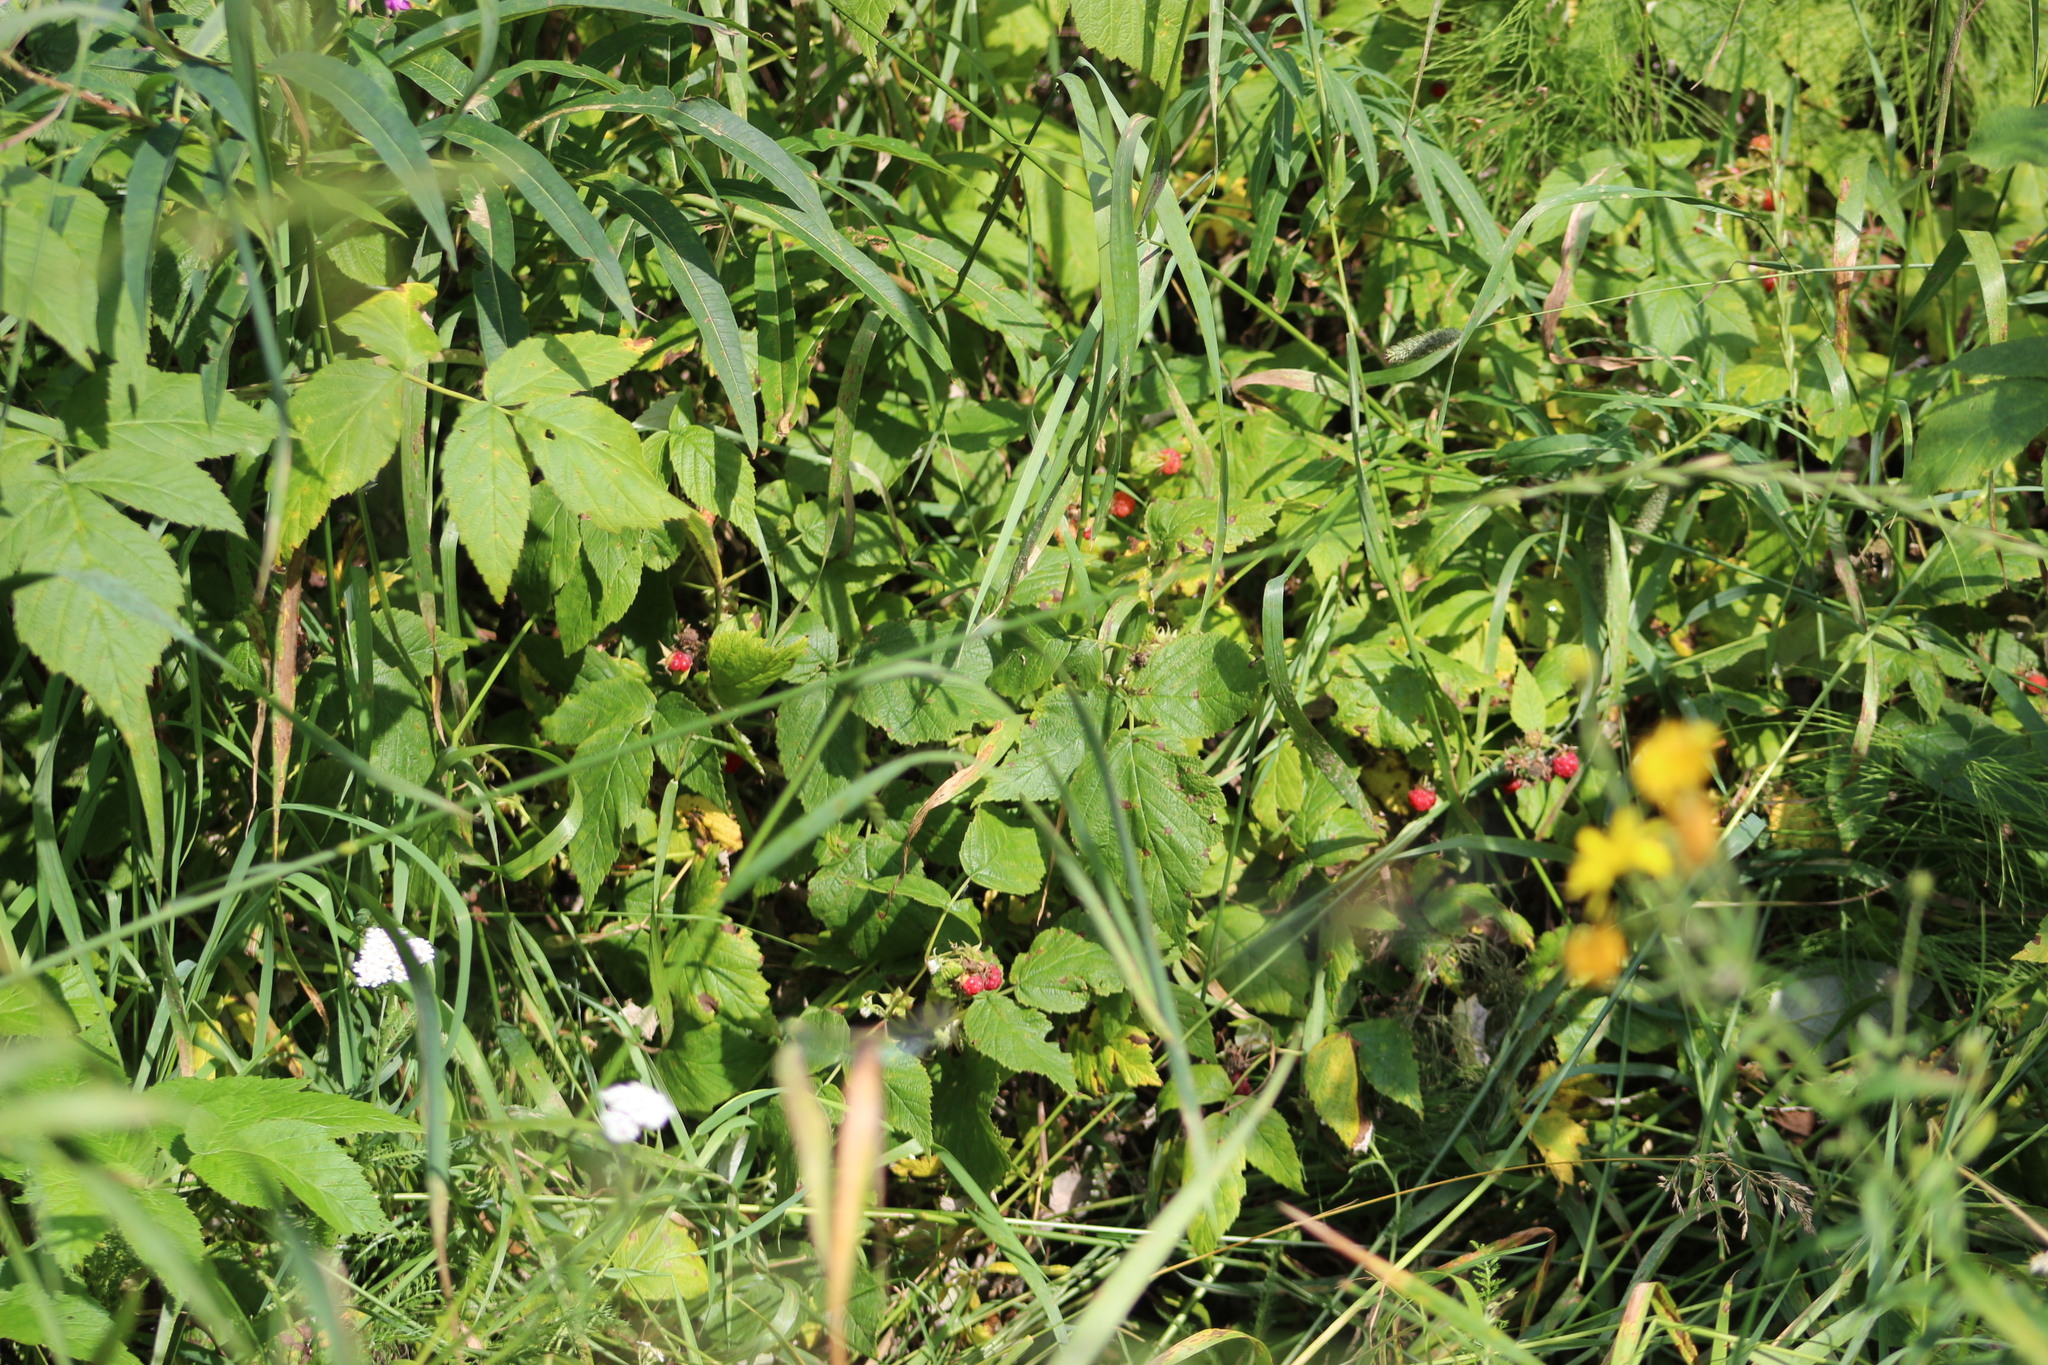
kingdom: Plantae
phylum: Tracheophyta
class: Magnoliopsida
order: Rosales
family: Rosaceae
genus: Rubus
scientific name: Rubus idaeus
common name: Raspberry
